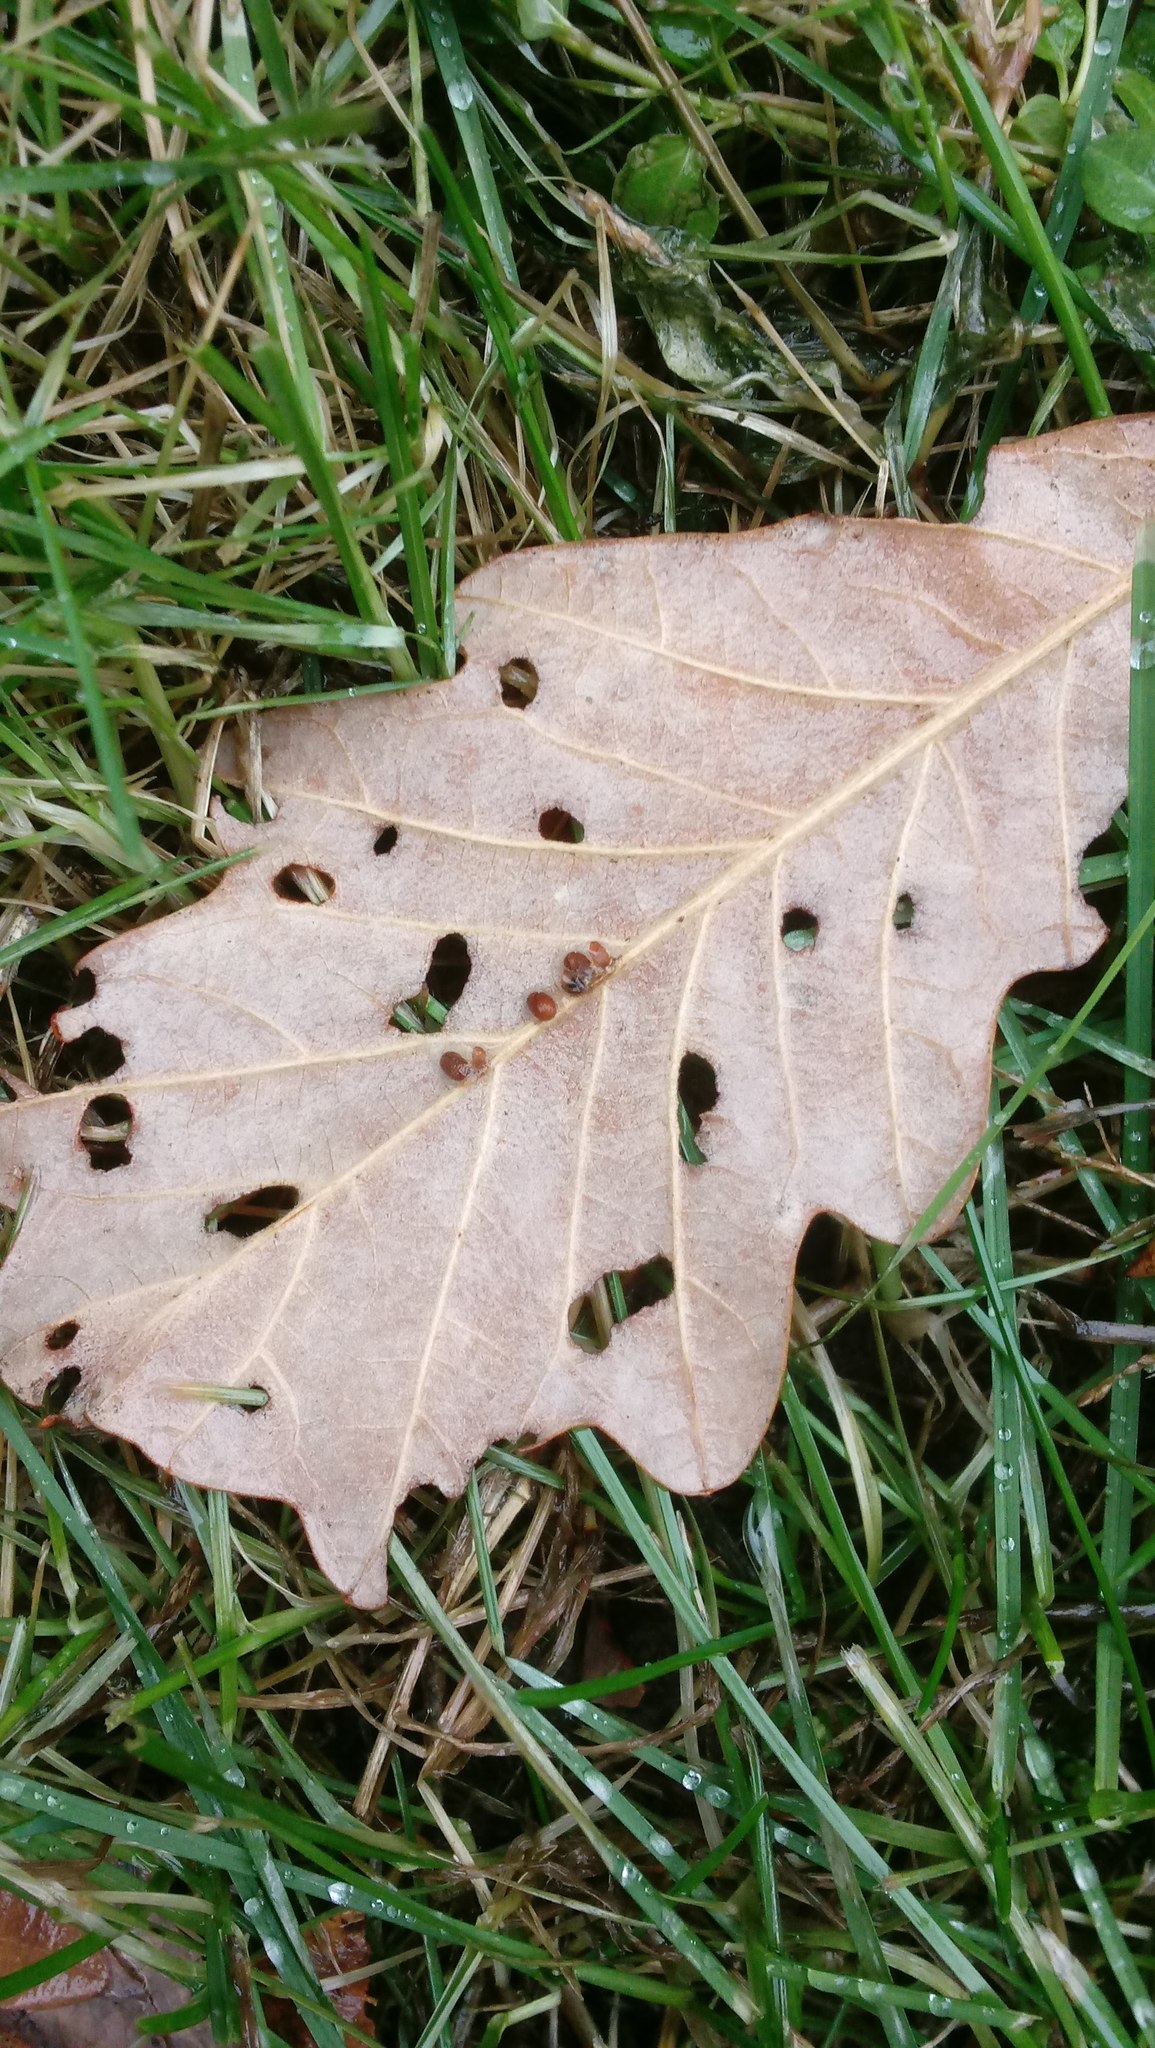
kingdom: Animalia
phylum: Arthropoda
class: Insecta
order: Hymenoptera
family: Cynipidae
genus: Andricus
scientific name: Andricus Druon ignotum
